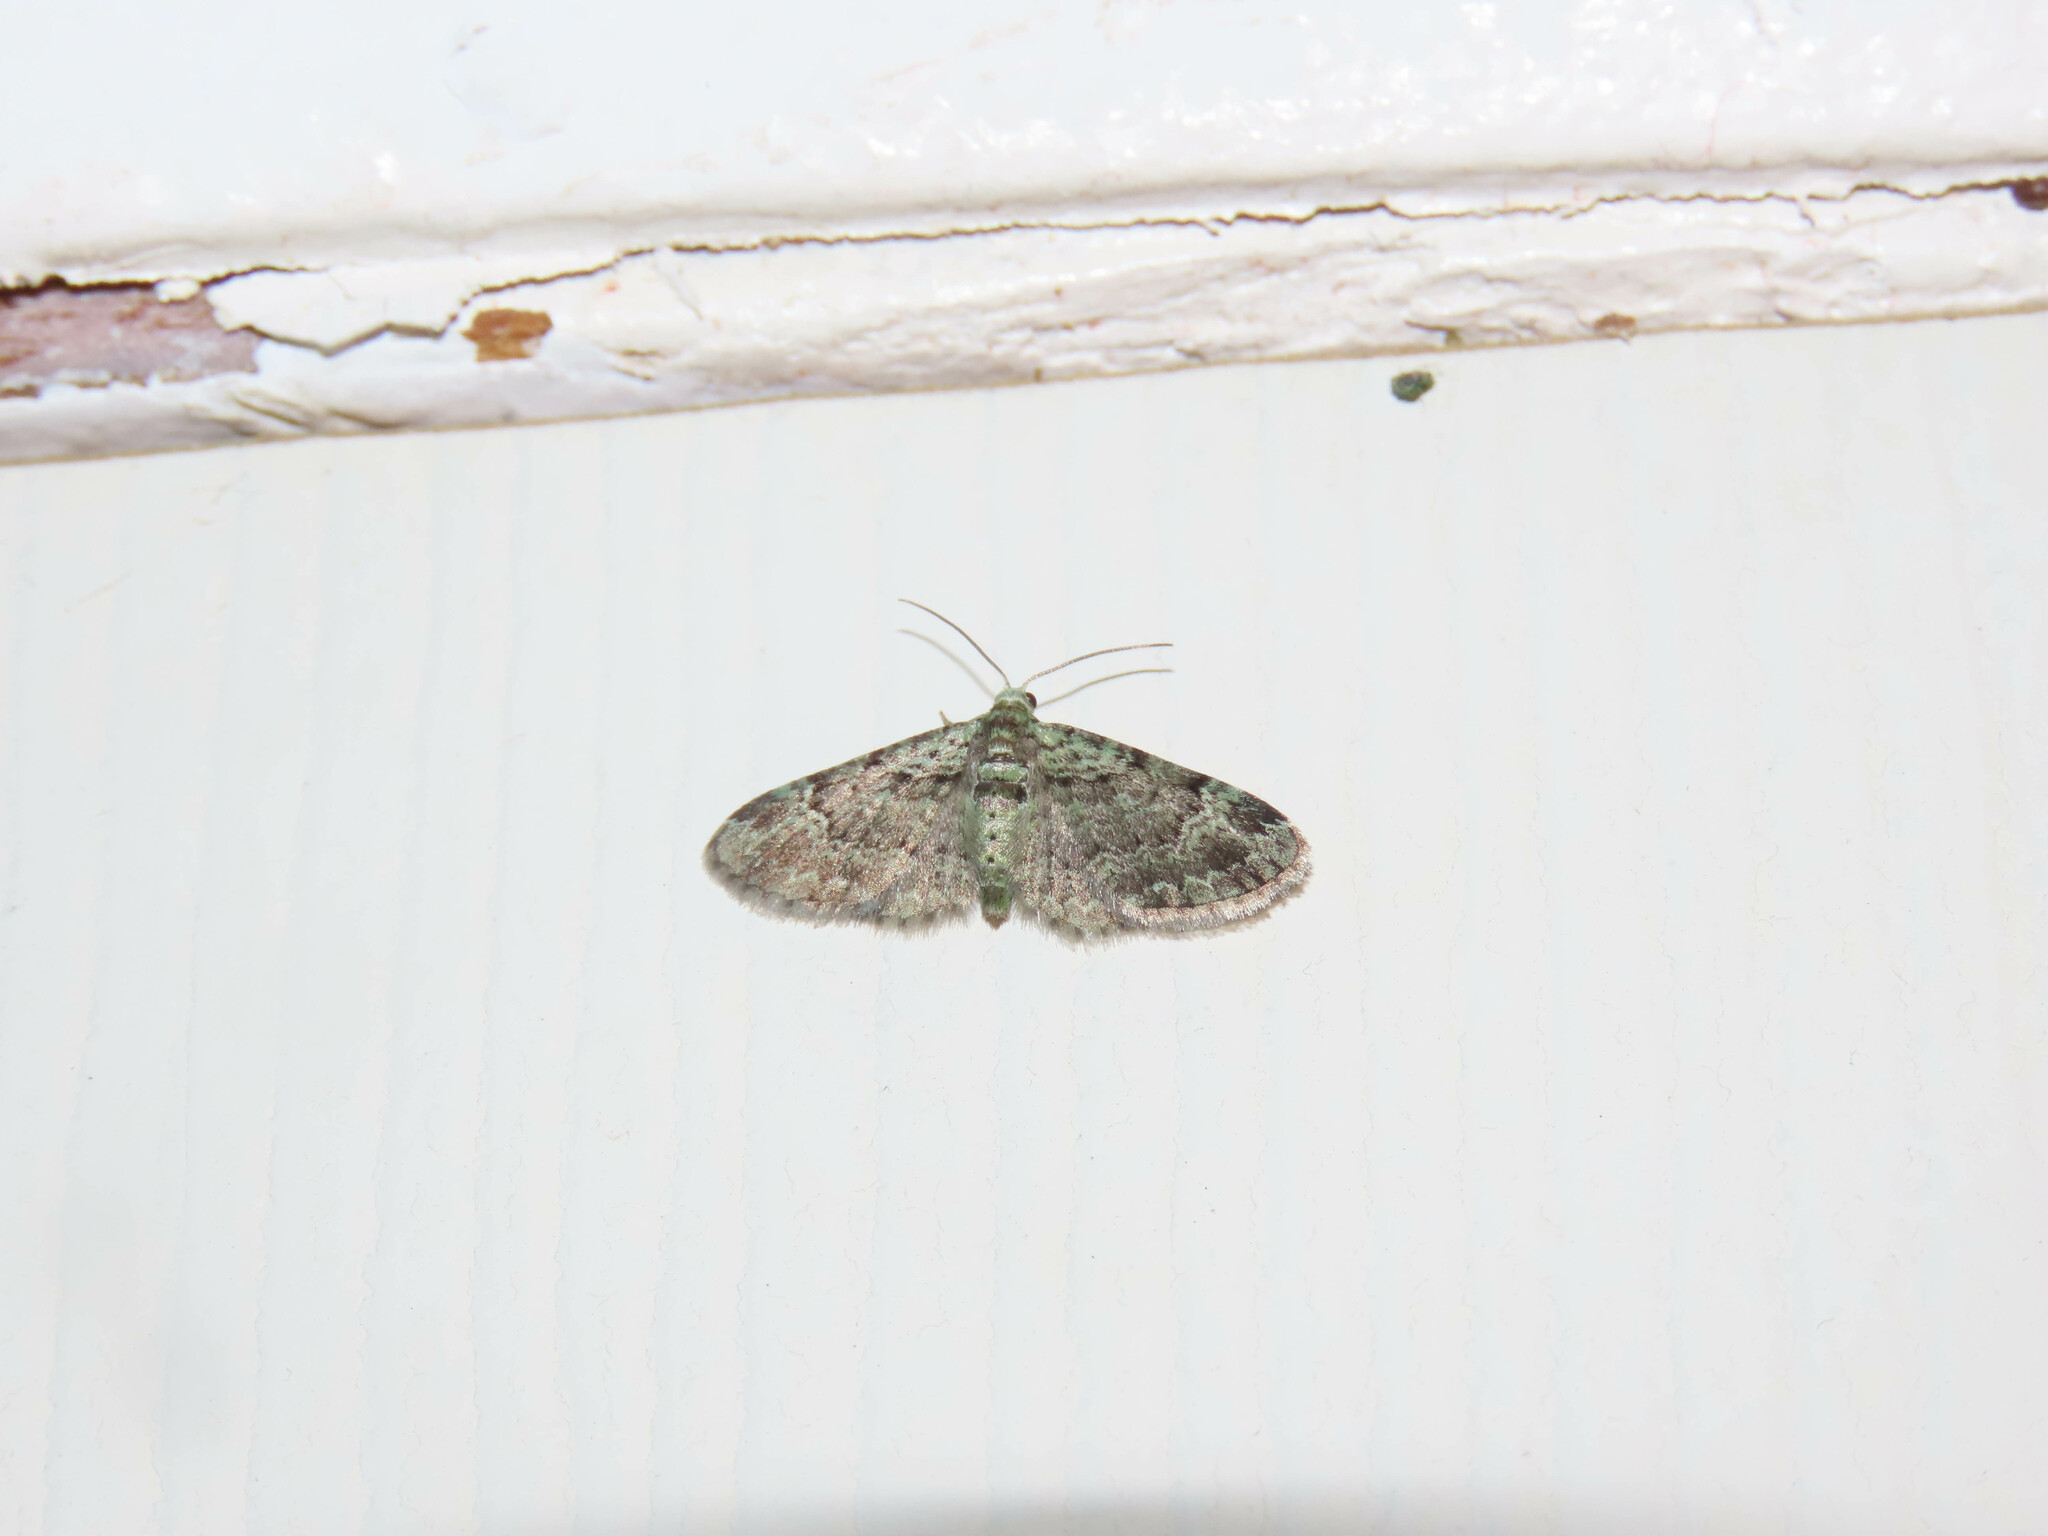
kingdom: Animalia
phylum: Arthropoda
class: Insecta
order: Lepidoptera
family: Geometridae
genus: Pasiphila
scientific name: Pasiphila rectangulata
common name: Green pug
